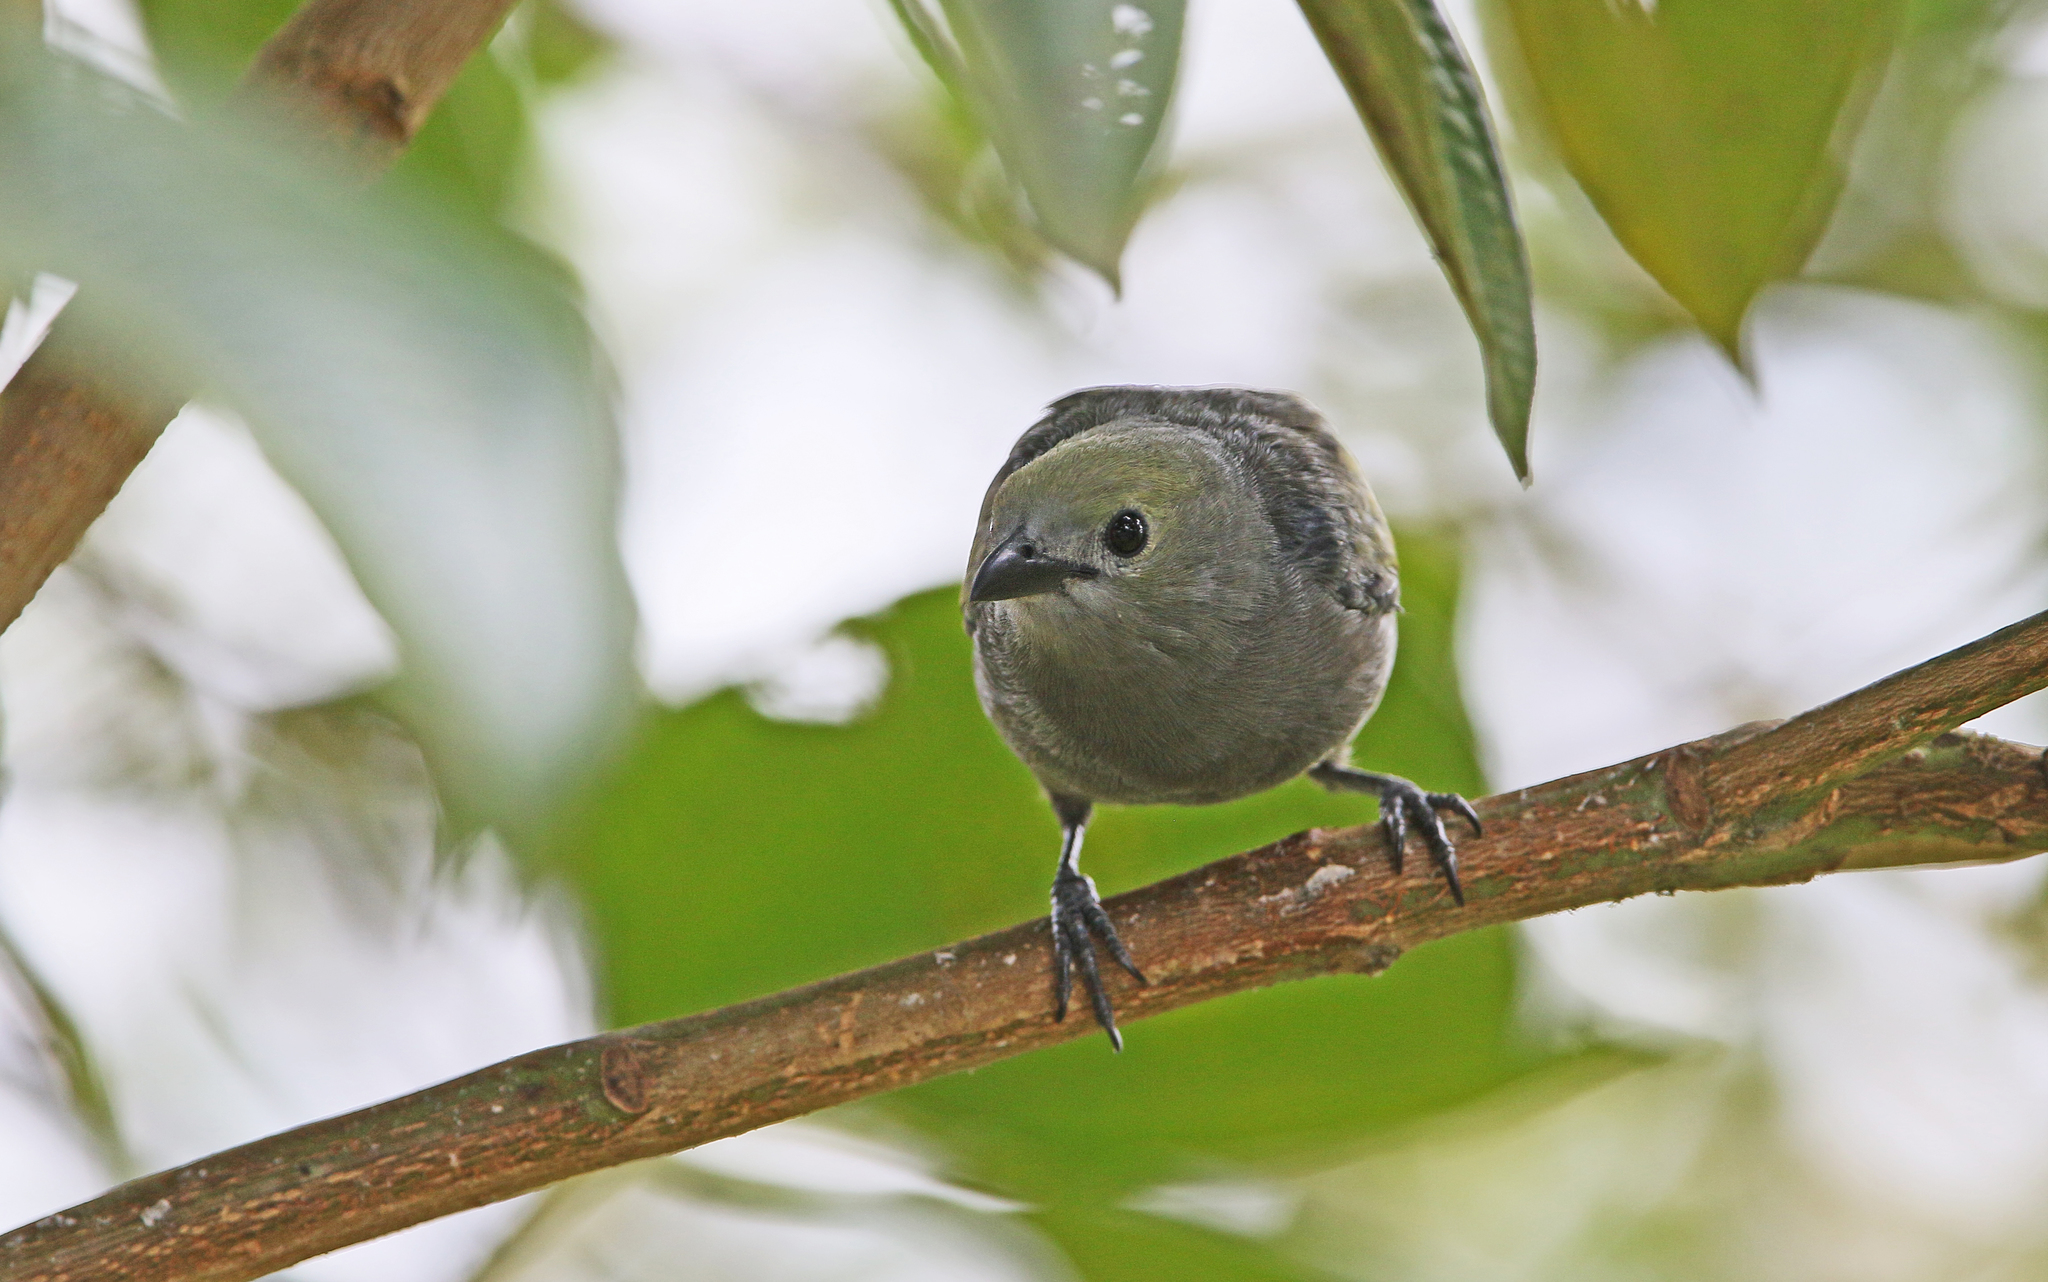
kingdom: Animalia
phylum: Chordata
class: Aves
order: Passeriformes
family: Thraupidae
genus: Thraupis
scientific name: Thraupis palmarum
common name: Palm tanager
